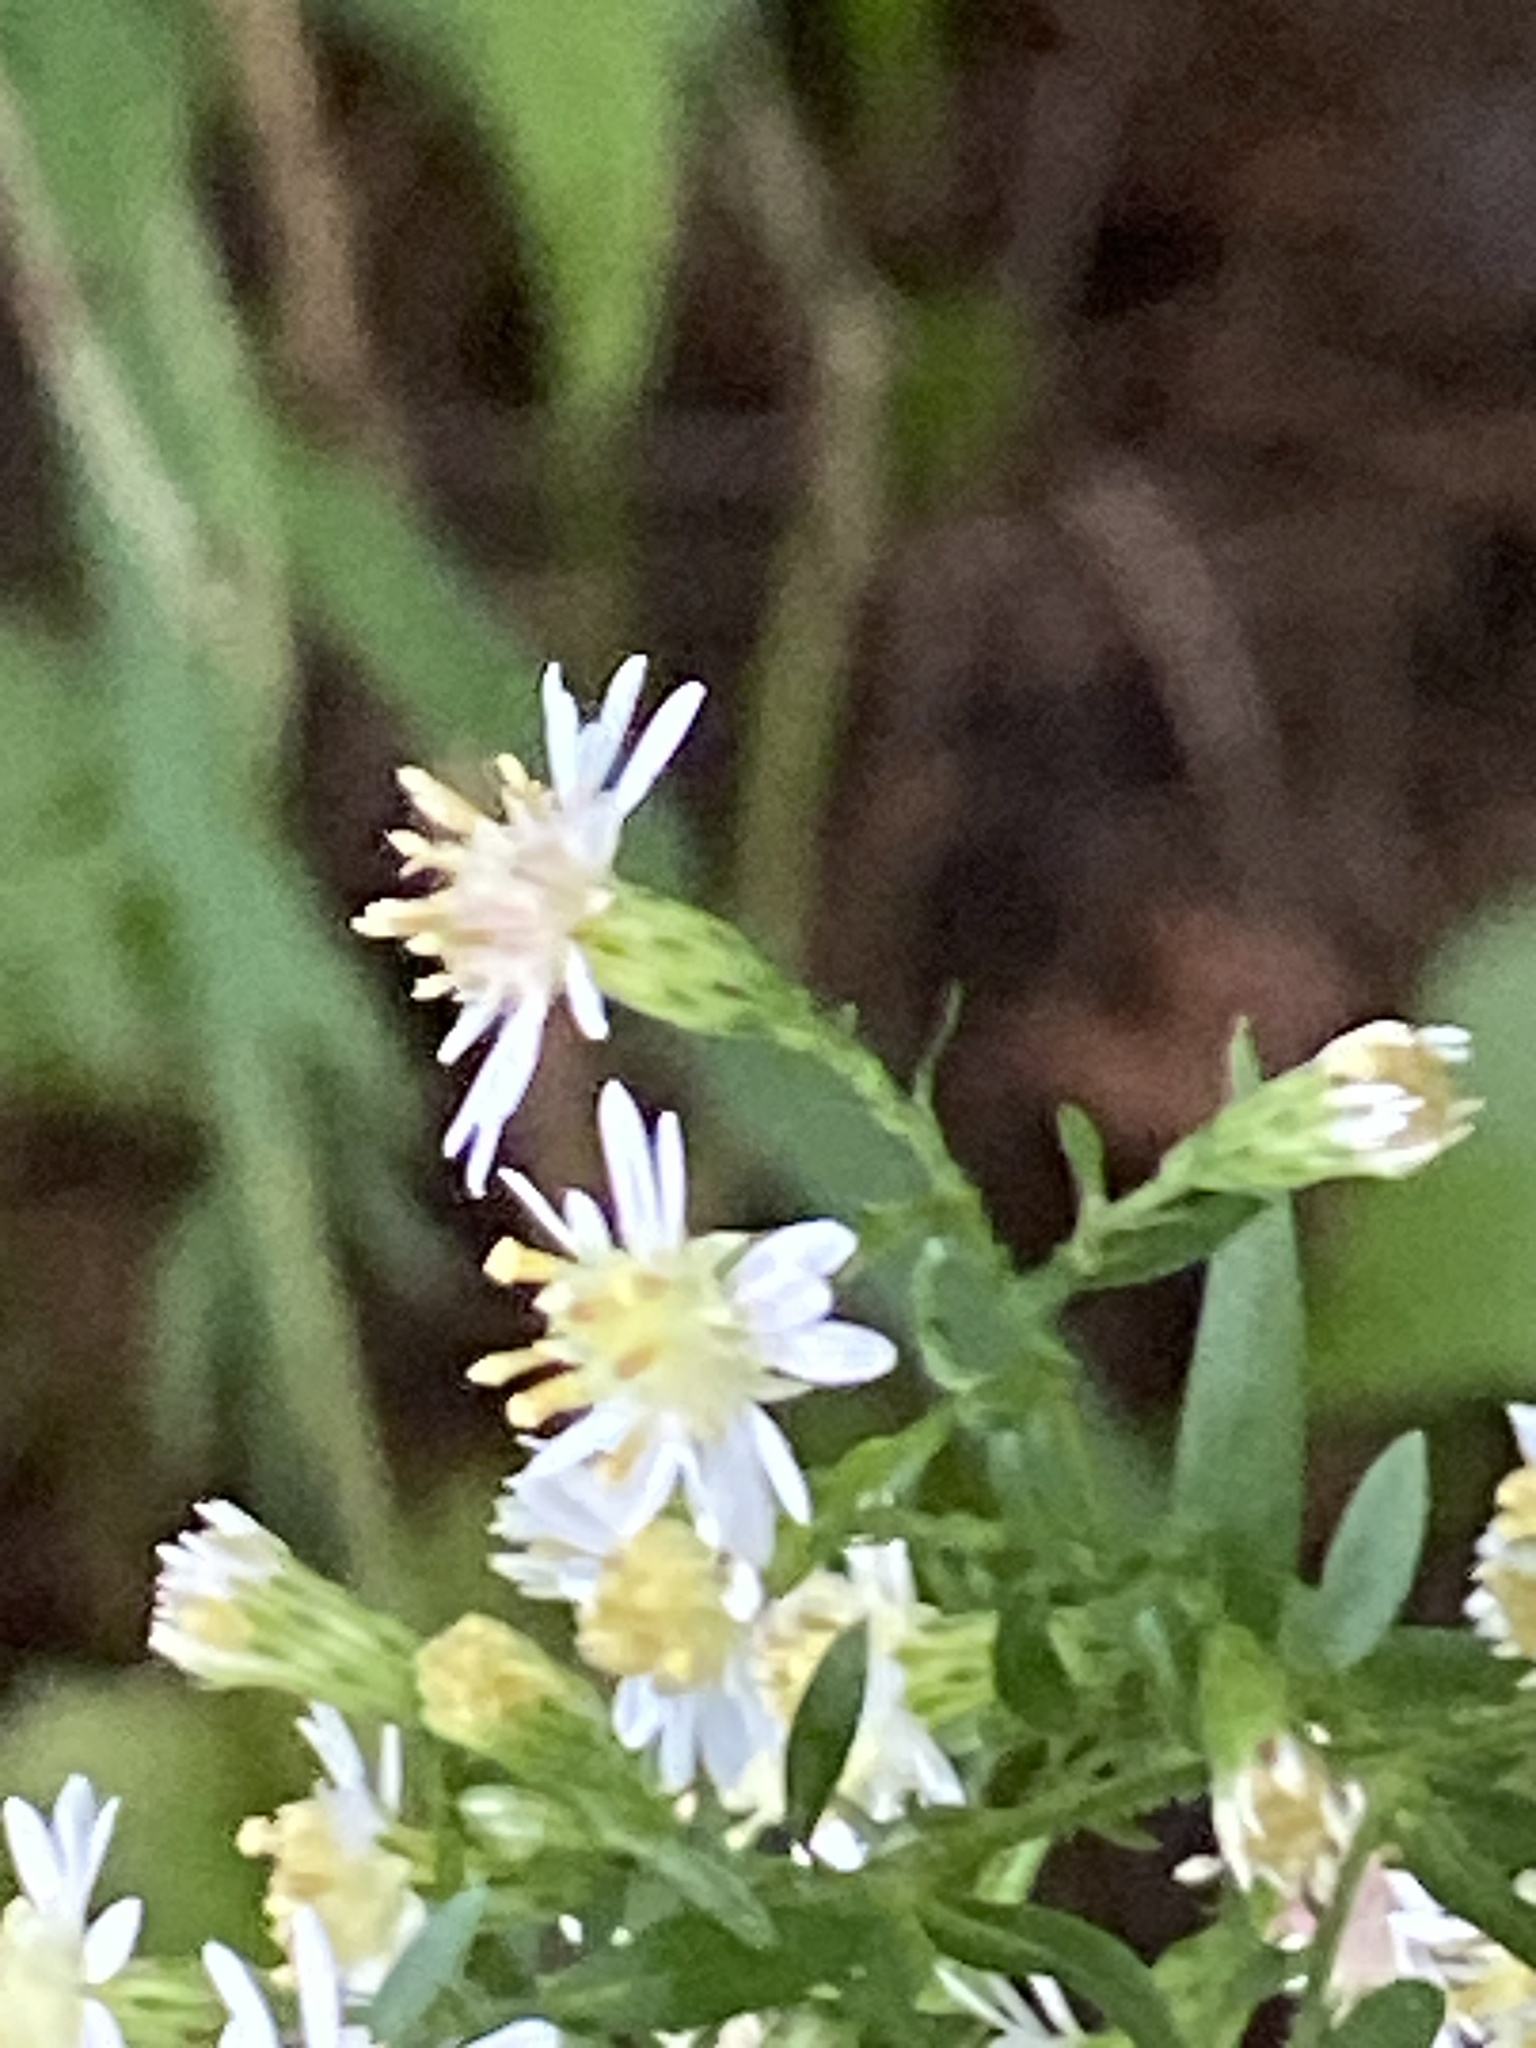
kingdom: Plantae
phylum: Tracheophyta
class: Magnoliopsida
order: Asterales
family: Asteraceae
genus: Symphyotrichum
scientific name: Symphyotrichum lateriflorum
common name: Calico aster
